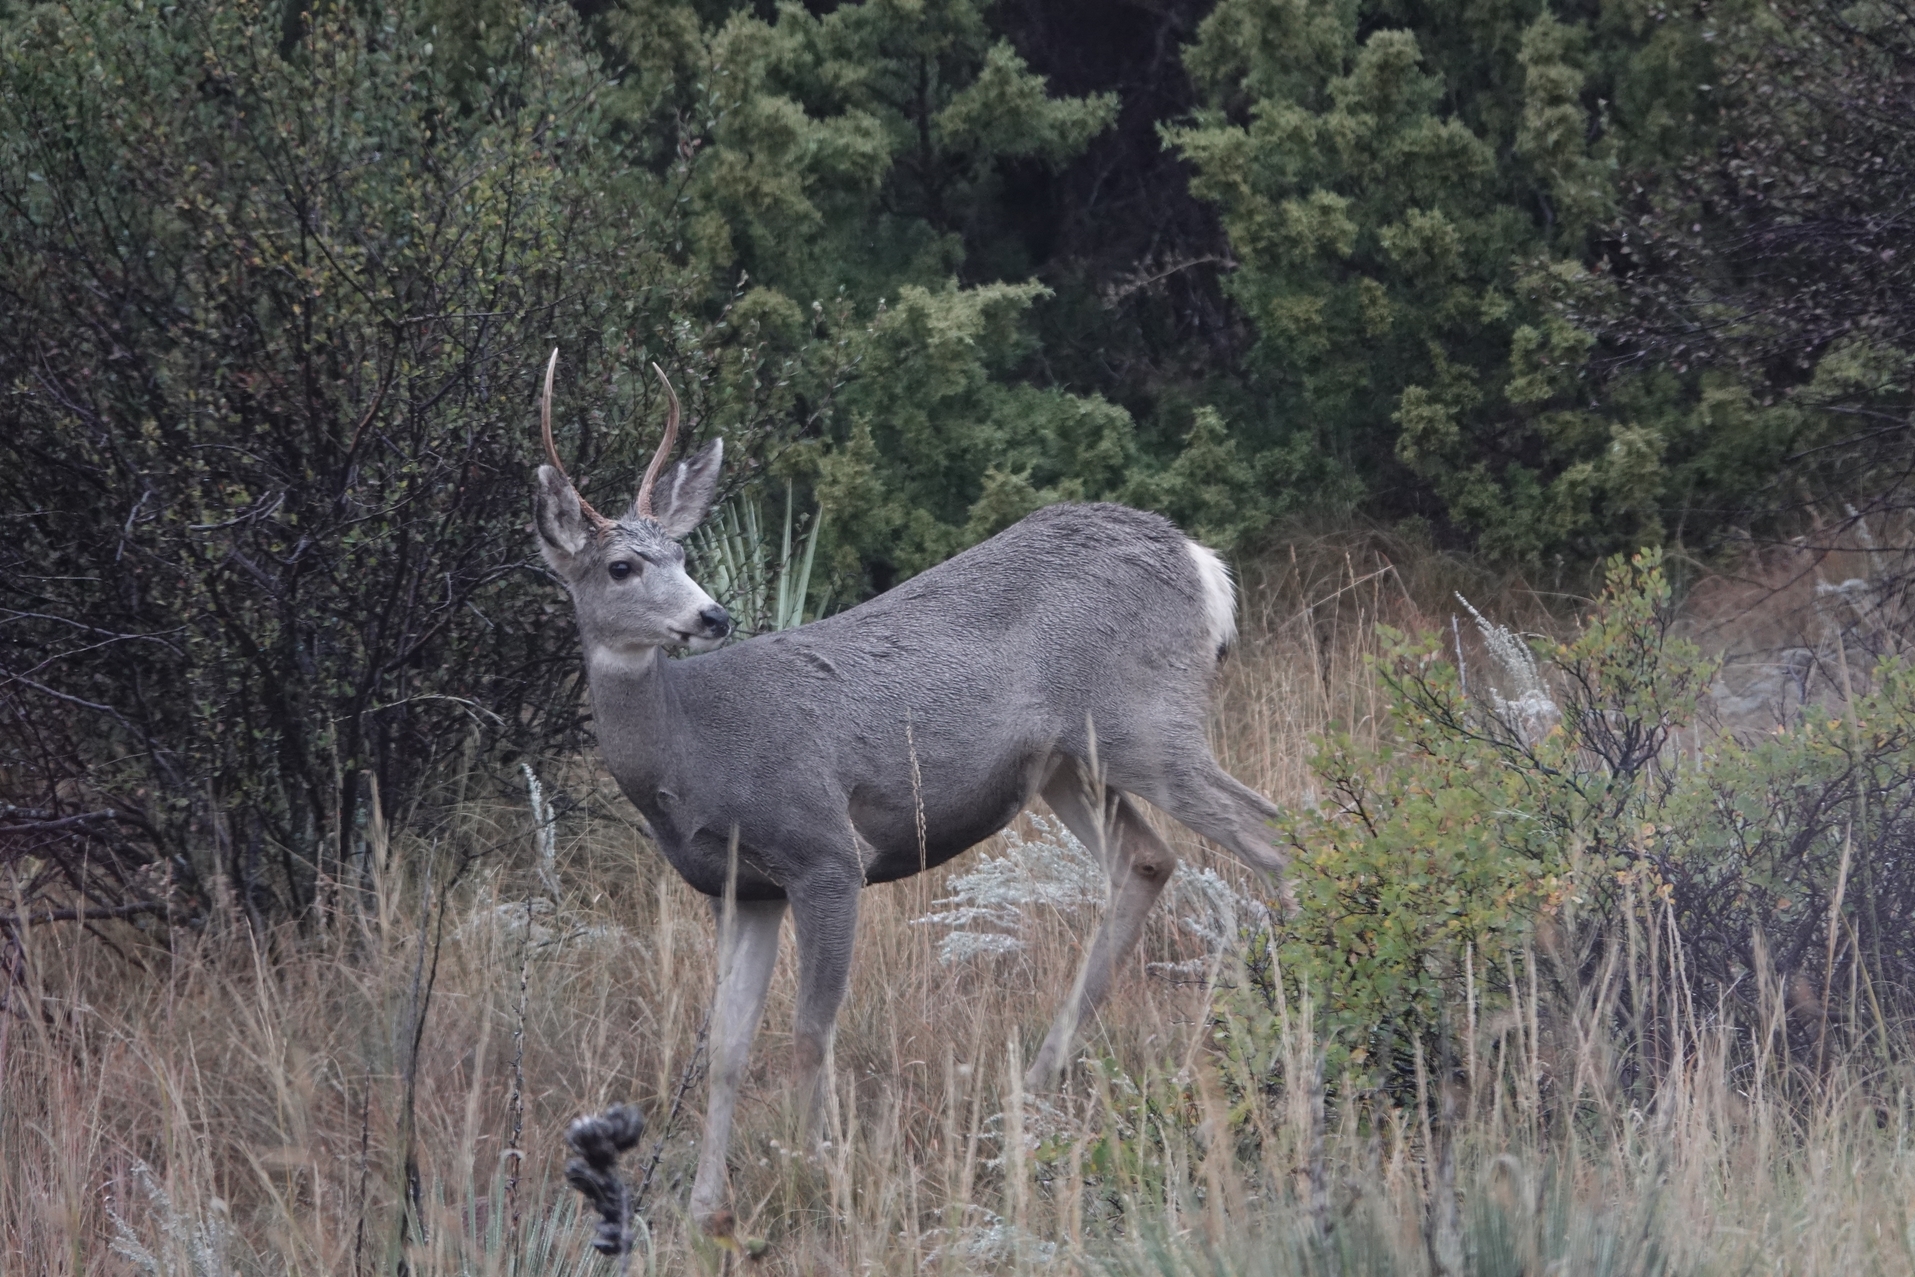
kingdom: Animalia
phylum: Chordata
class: Mammalia
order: Artiodactyla
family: Cervidae
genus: Odocoileus
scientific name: Odocoileus hemionus
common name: Mule deer
